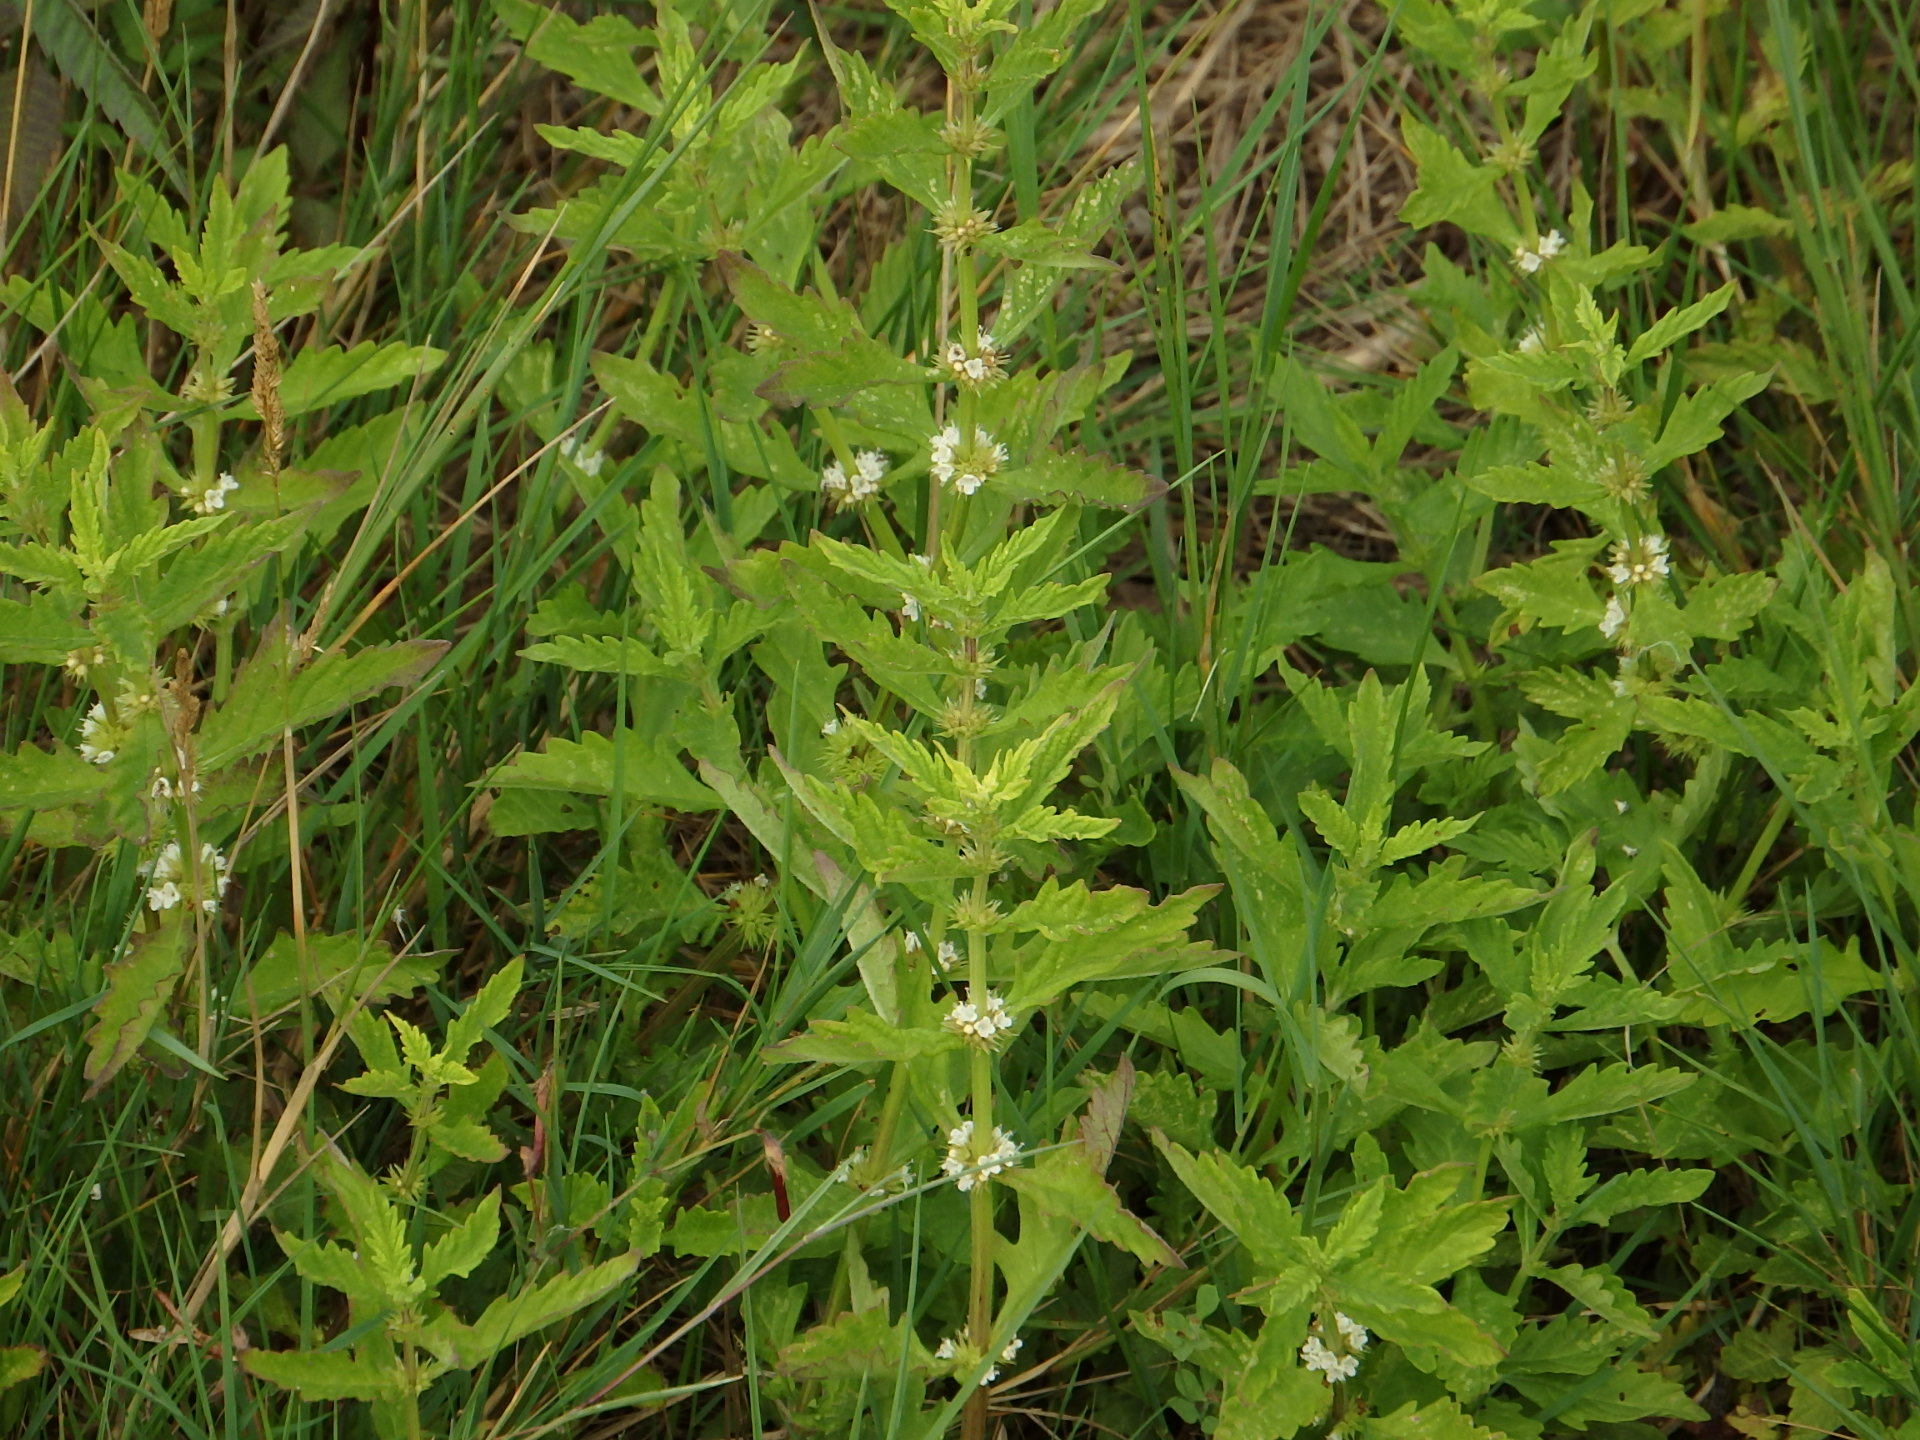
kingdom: Plantae
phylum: Tracheophyta
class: Magnoliopsida
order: Lamiales
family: Lamiaceae
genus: Lycopus
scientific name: Lycopus europaeus
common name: European bugleweed
